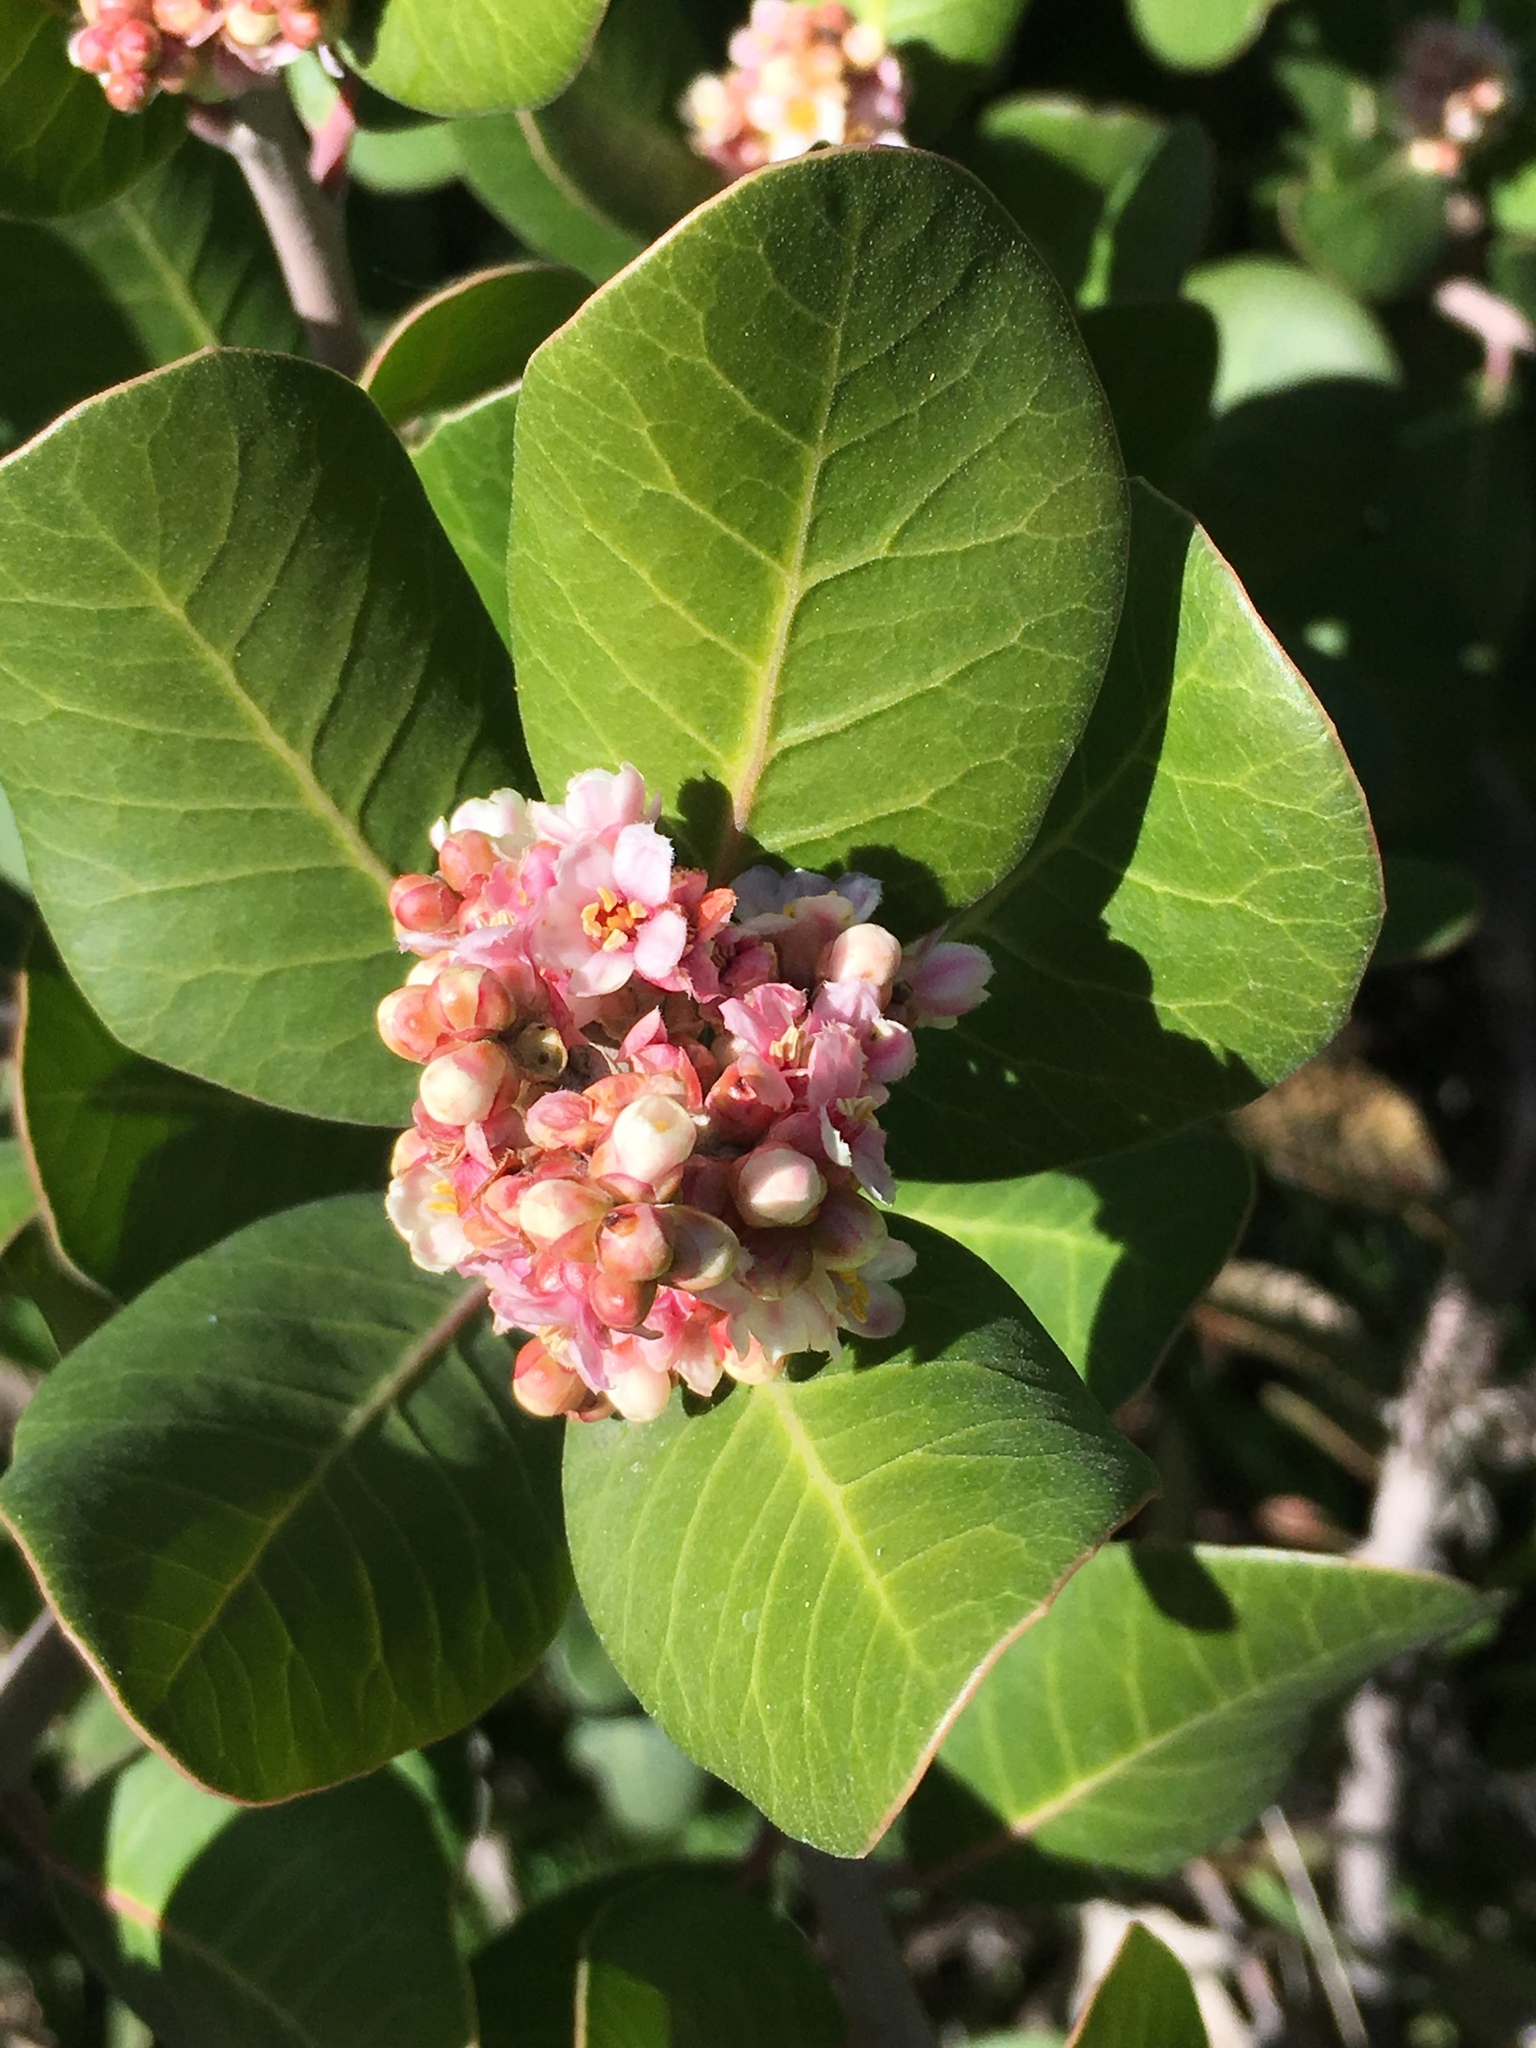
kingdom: Plantae
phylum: Tracheophyta
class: Magnoliopsida
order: Sapindales
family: Anacardiaceae
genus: Rhus
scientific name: Rhus integrifolia
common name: Lemonade sumac
